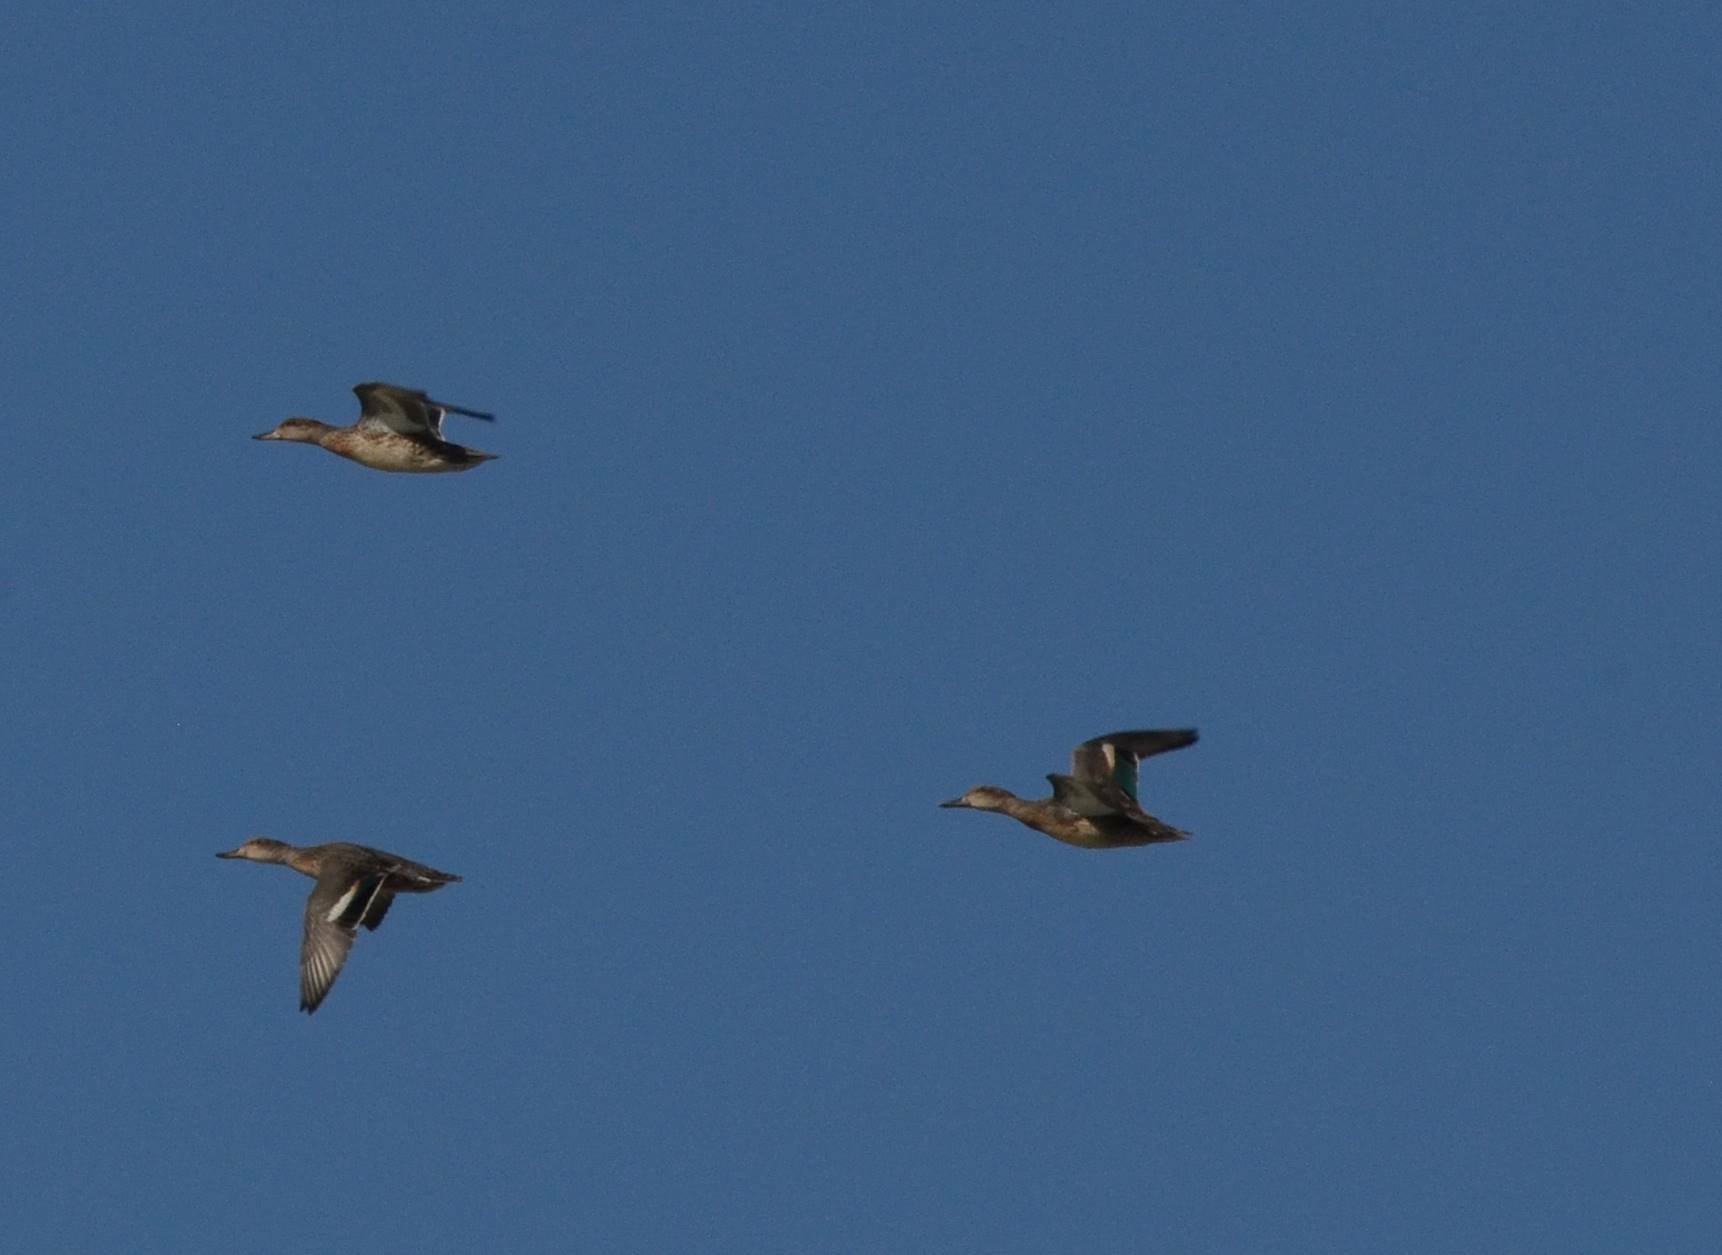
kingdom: Animalia
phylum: Chordata
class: Aves
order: Anseriformes
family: Anatidae
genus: Anas
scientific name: Anas crecca
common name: Eurasian teal
